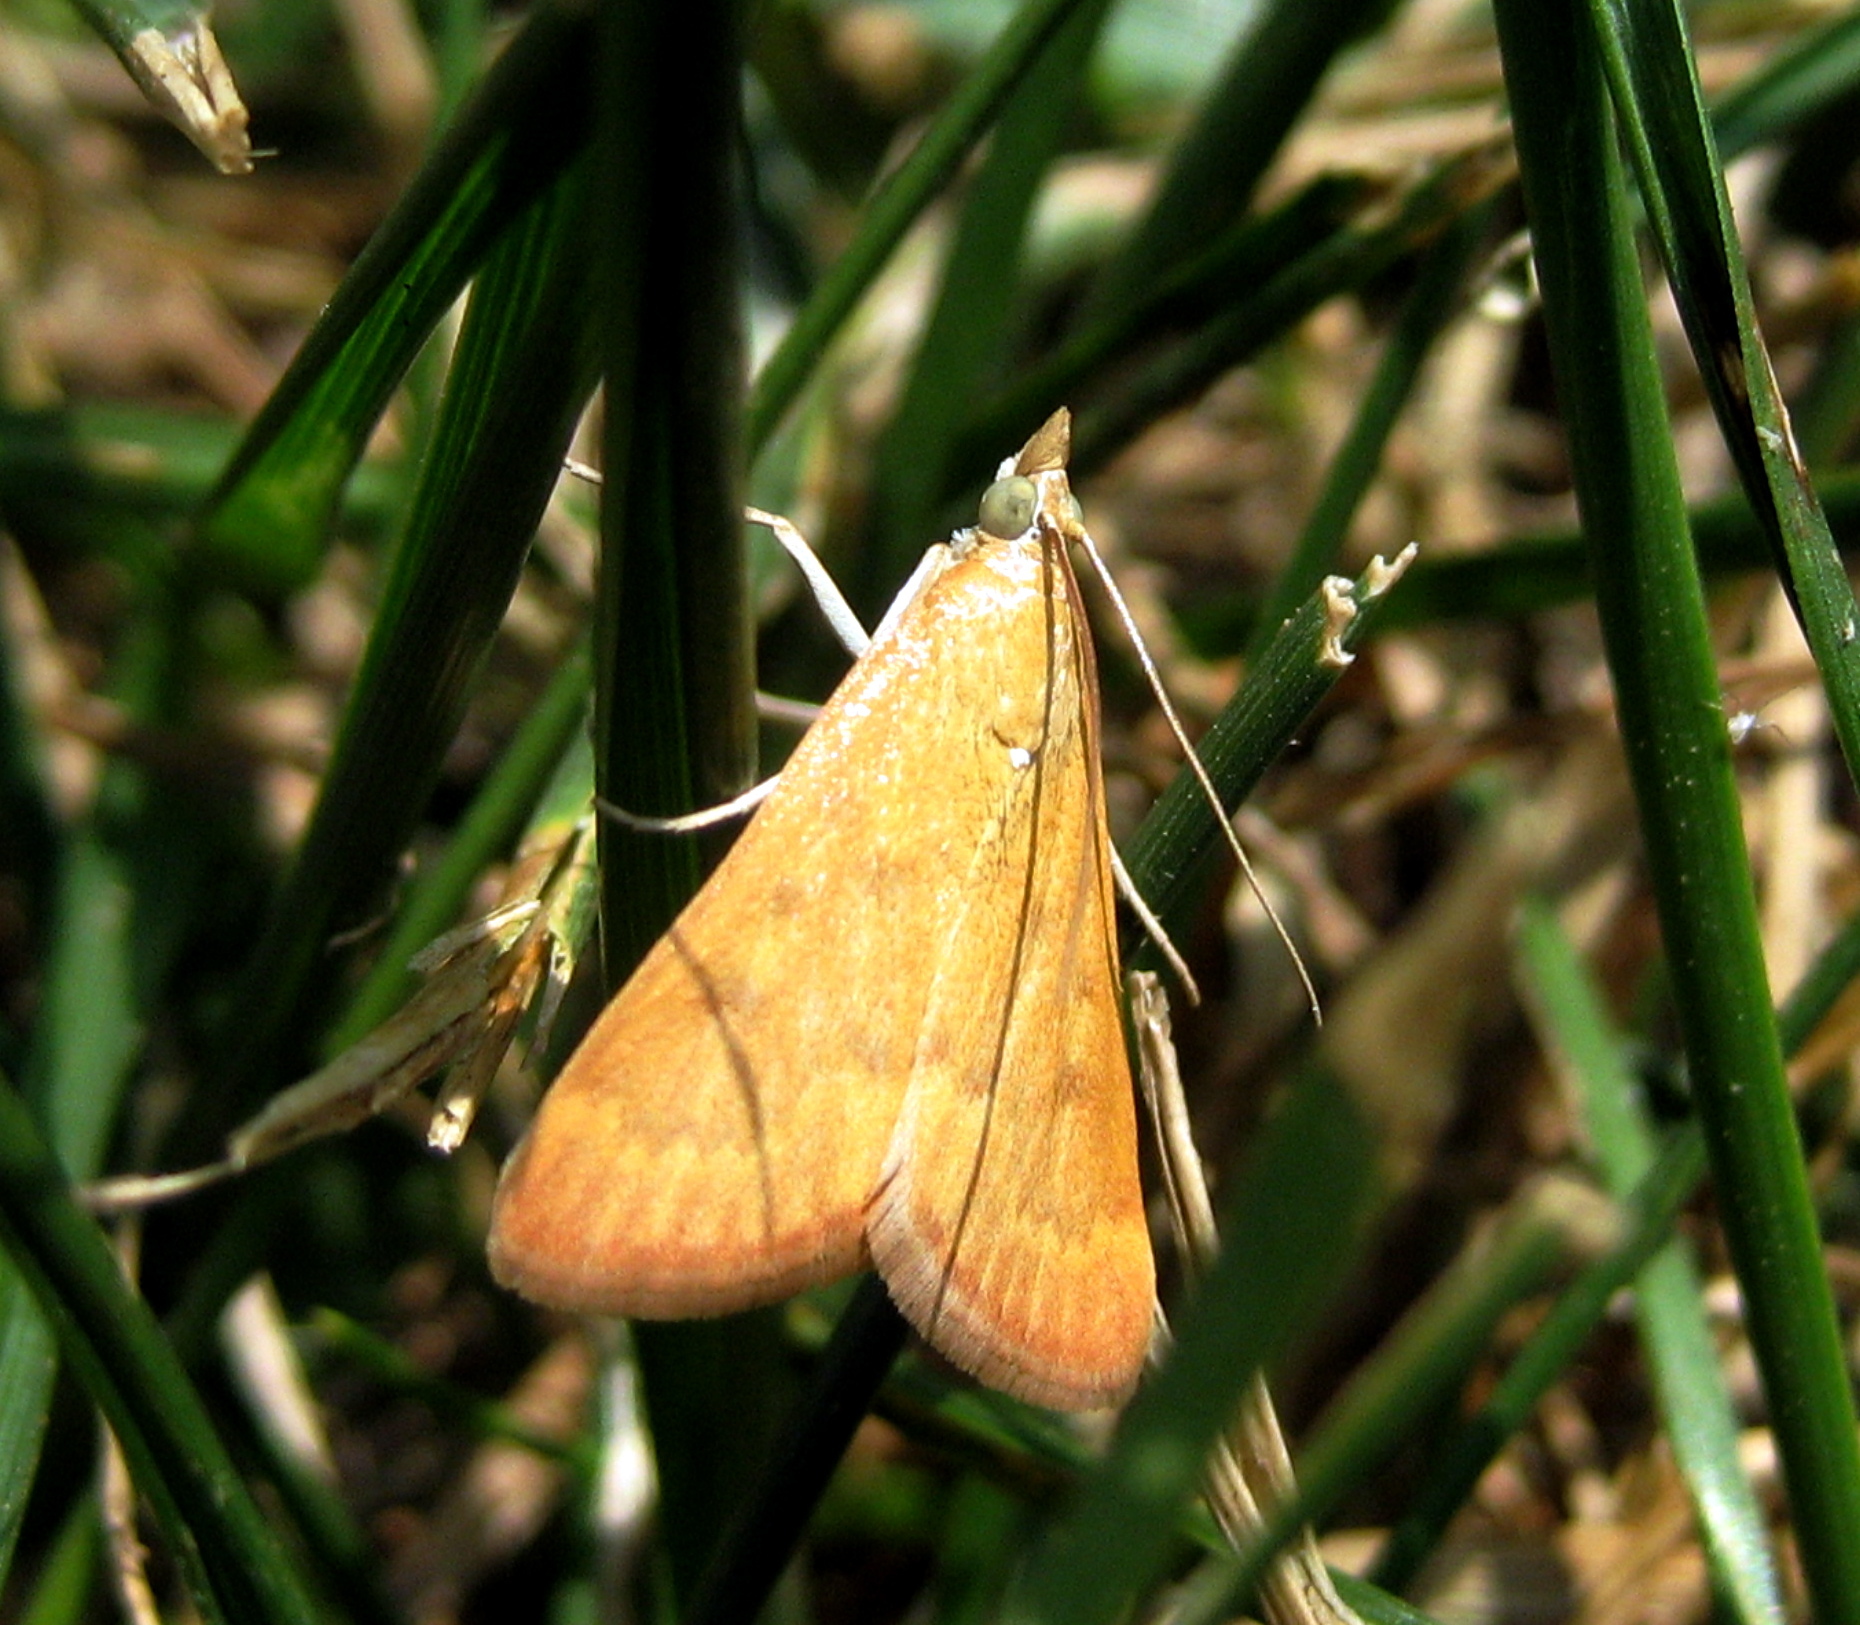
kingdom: Animalia
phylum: Arthropoda
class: Insecta
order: Lepidoptera
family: Crambidae
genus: Achyra
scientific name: Achyra rantalis
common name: Garden webworm
